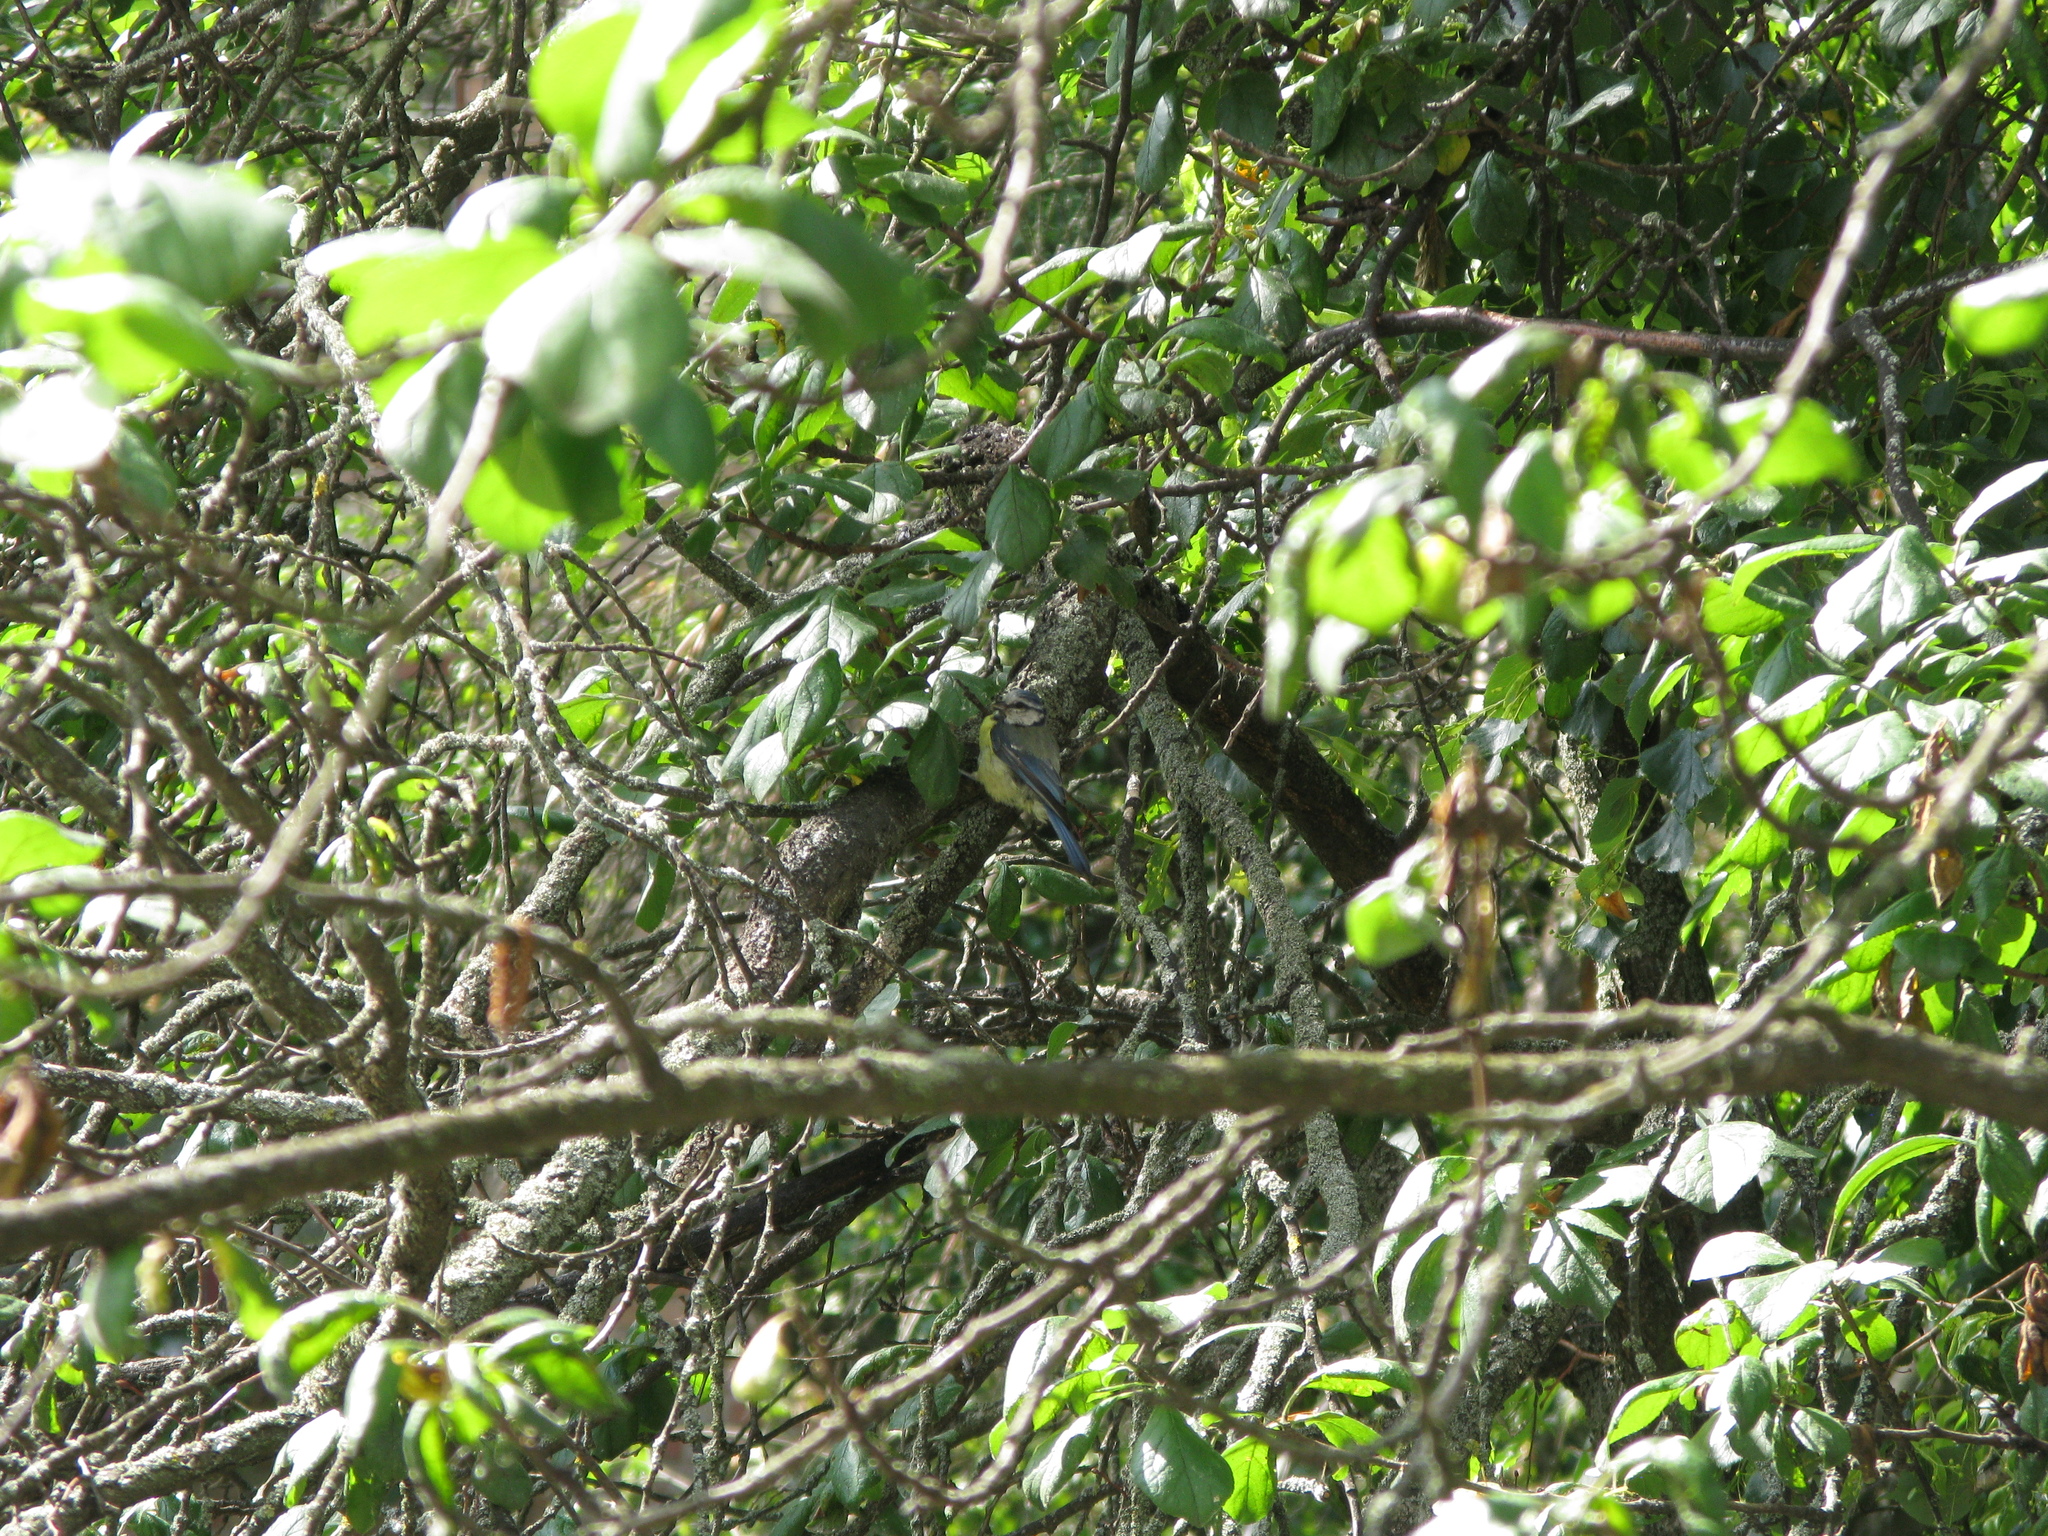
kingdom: Animalia
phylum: Chordata
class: Aves
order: Passeriformes
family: Paridae
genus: Cyanistes
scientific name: Cyanistes caeruleus
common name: Eurasian blue tit
